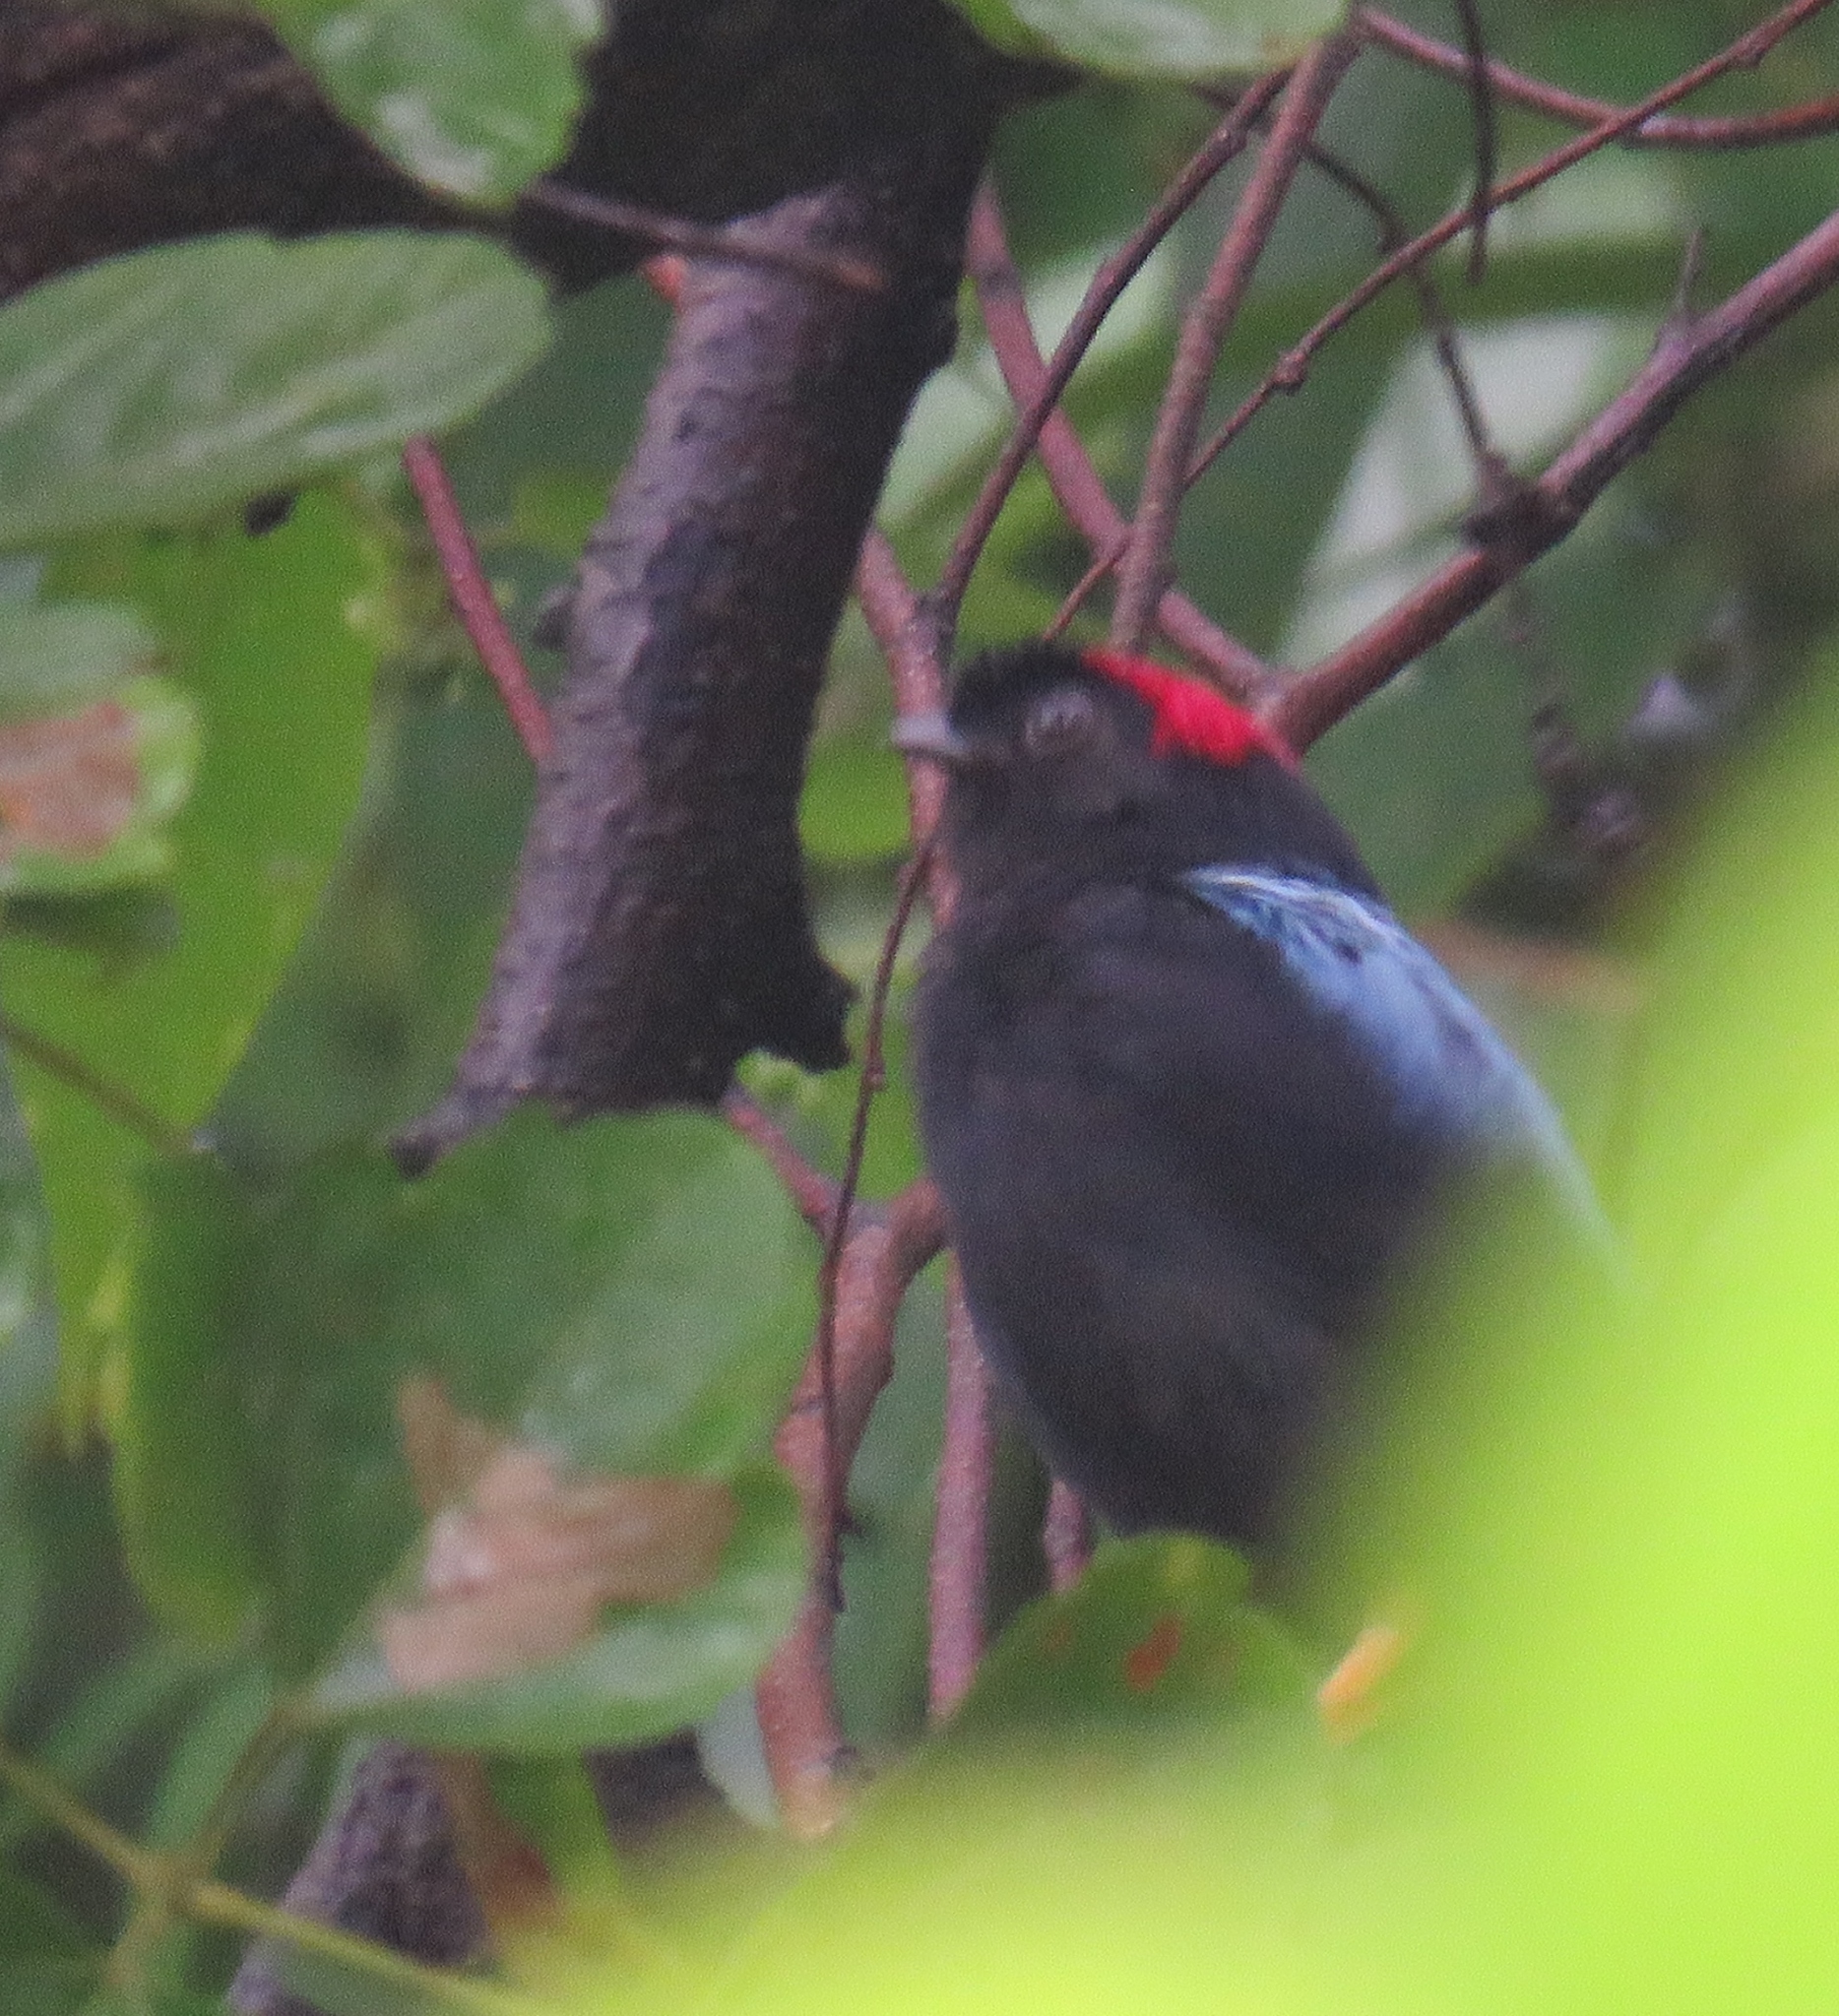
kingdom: Animalia
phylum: Chordata
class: Aves
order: Passeriformes
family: Pipridae
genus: Chiroxiphia
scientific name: Chiroxiphia linearis
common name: Long-tailed manakin
